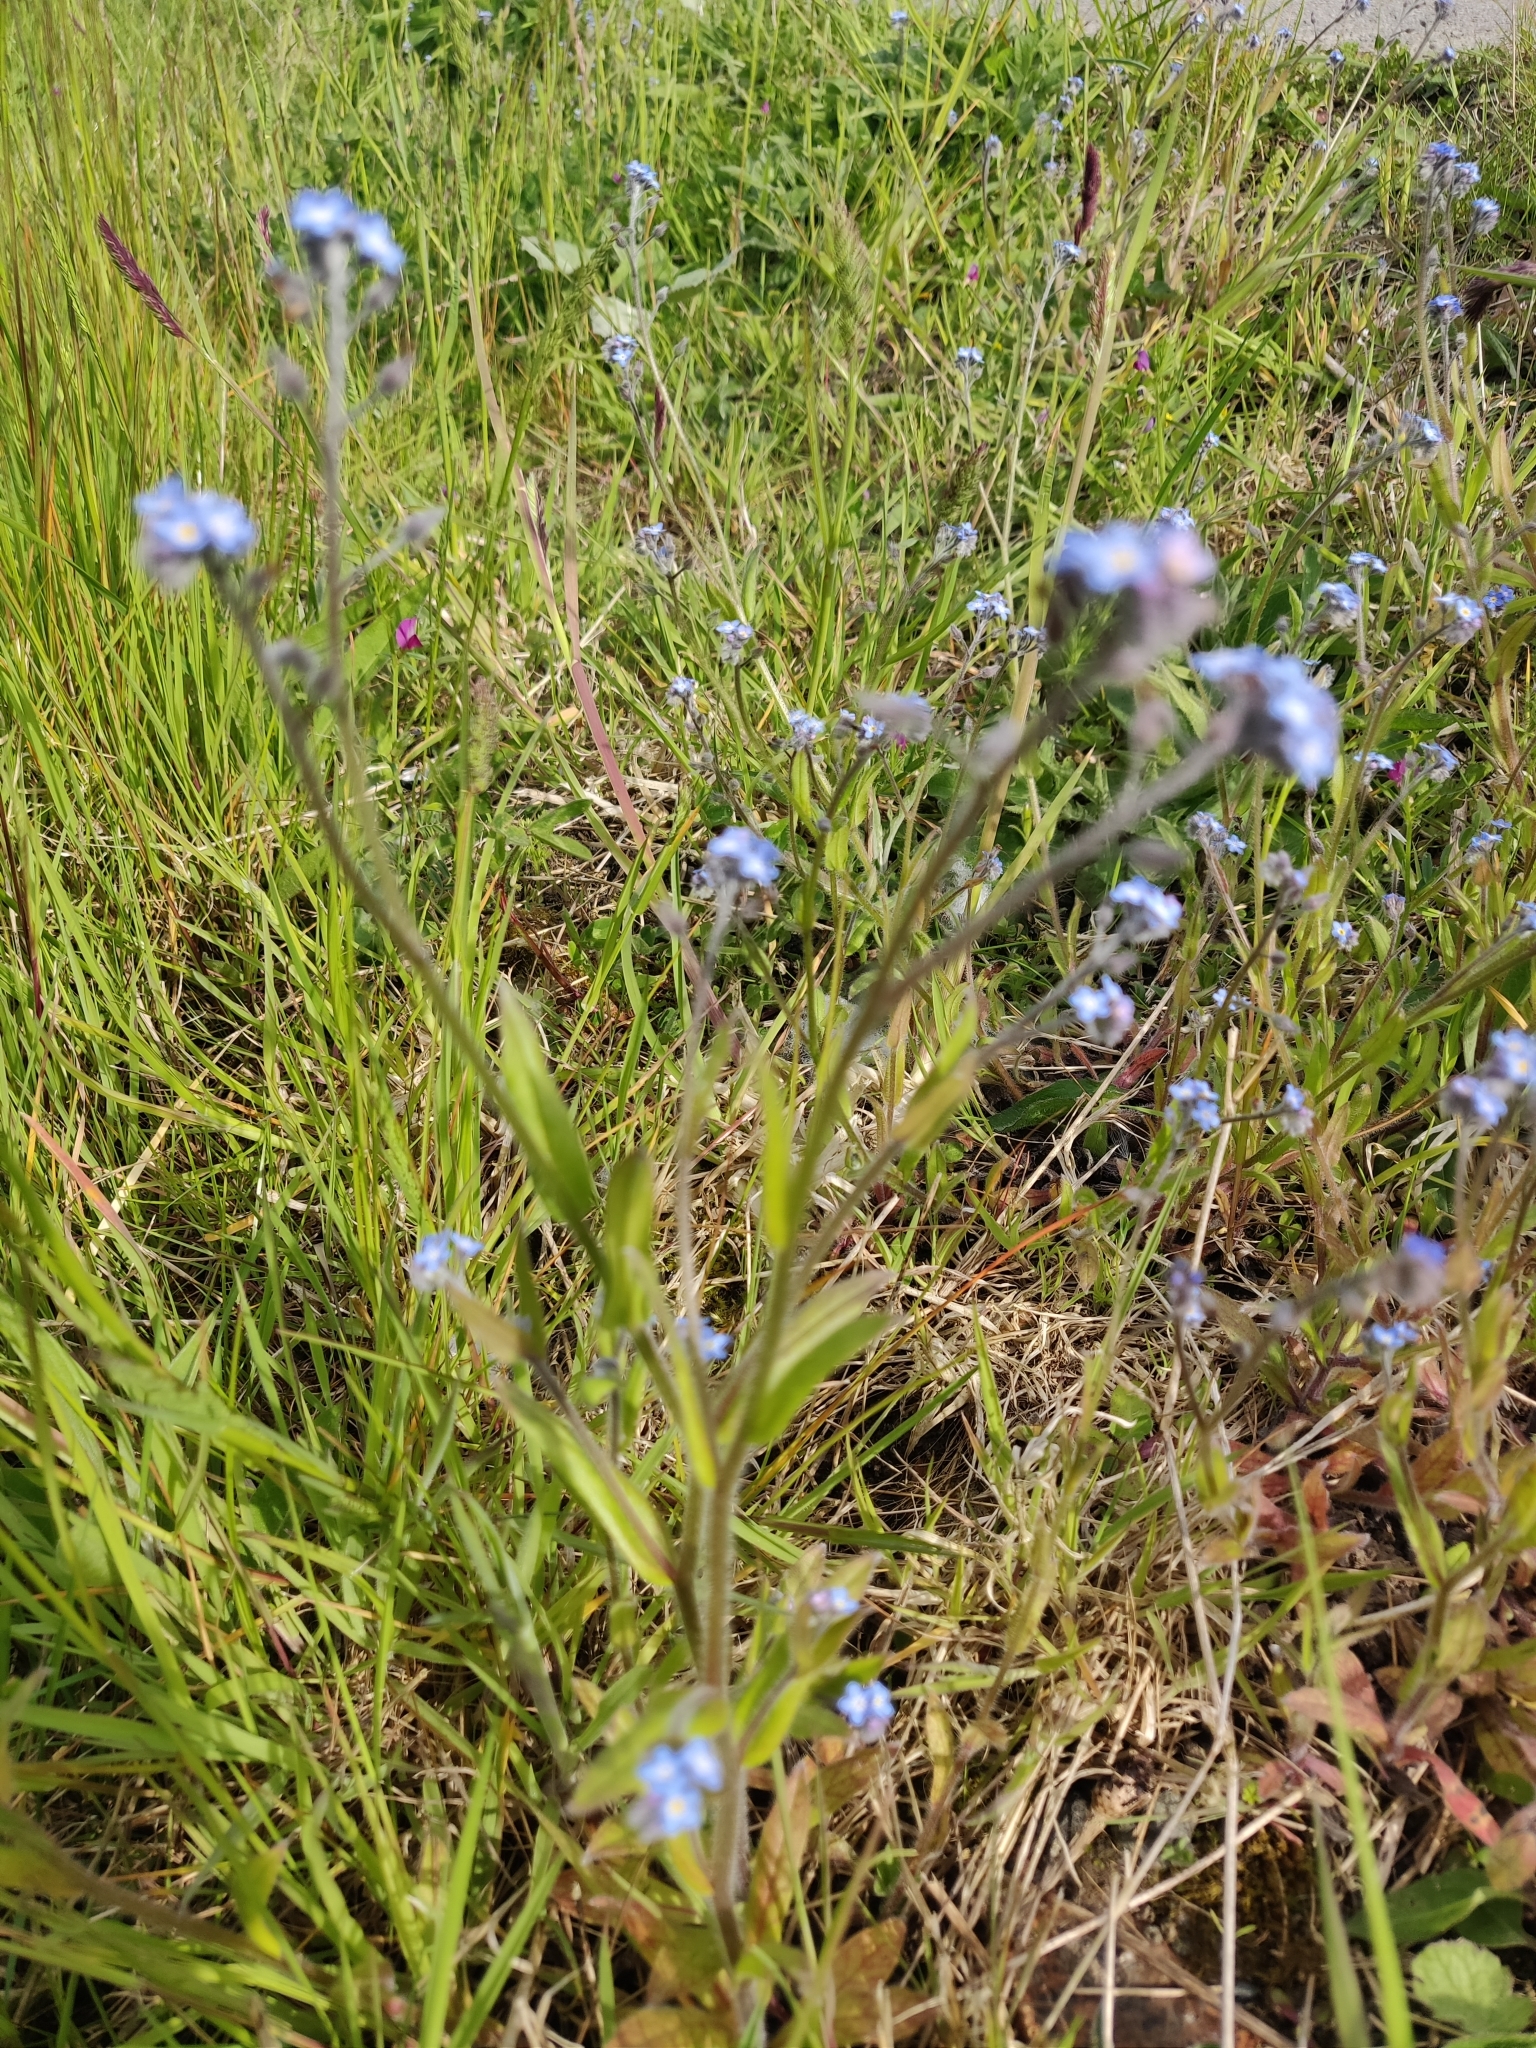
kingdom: Plantae
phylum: Tracheophyta
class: Magnoliopsida
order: Boraginales
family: Boraginaceae
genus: Myosotis
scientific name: Myosotis arvensis
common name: Field forget-me-not
